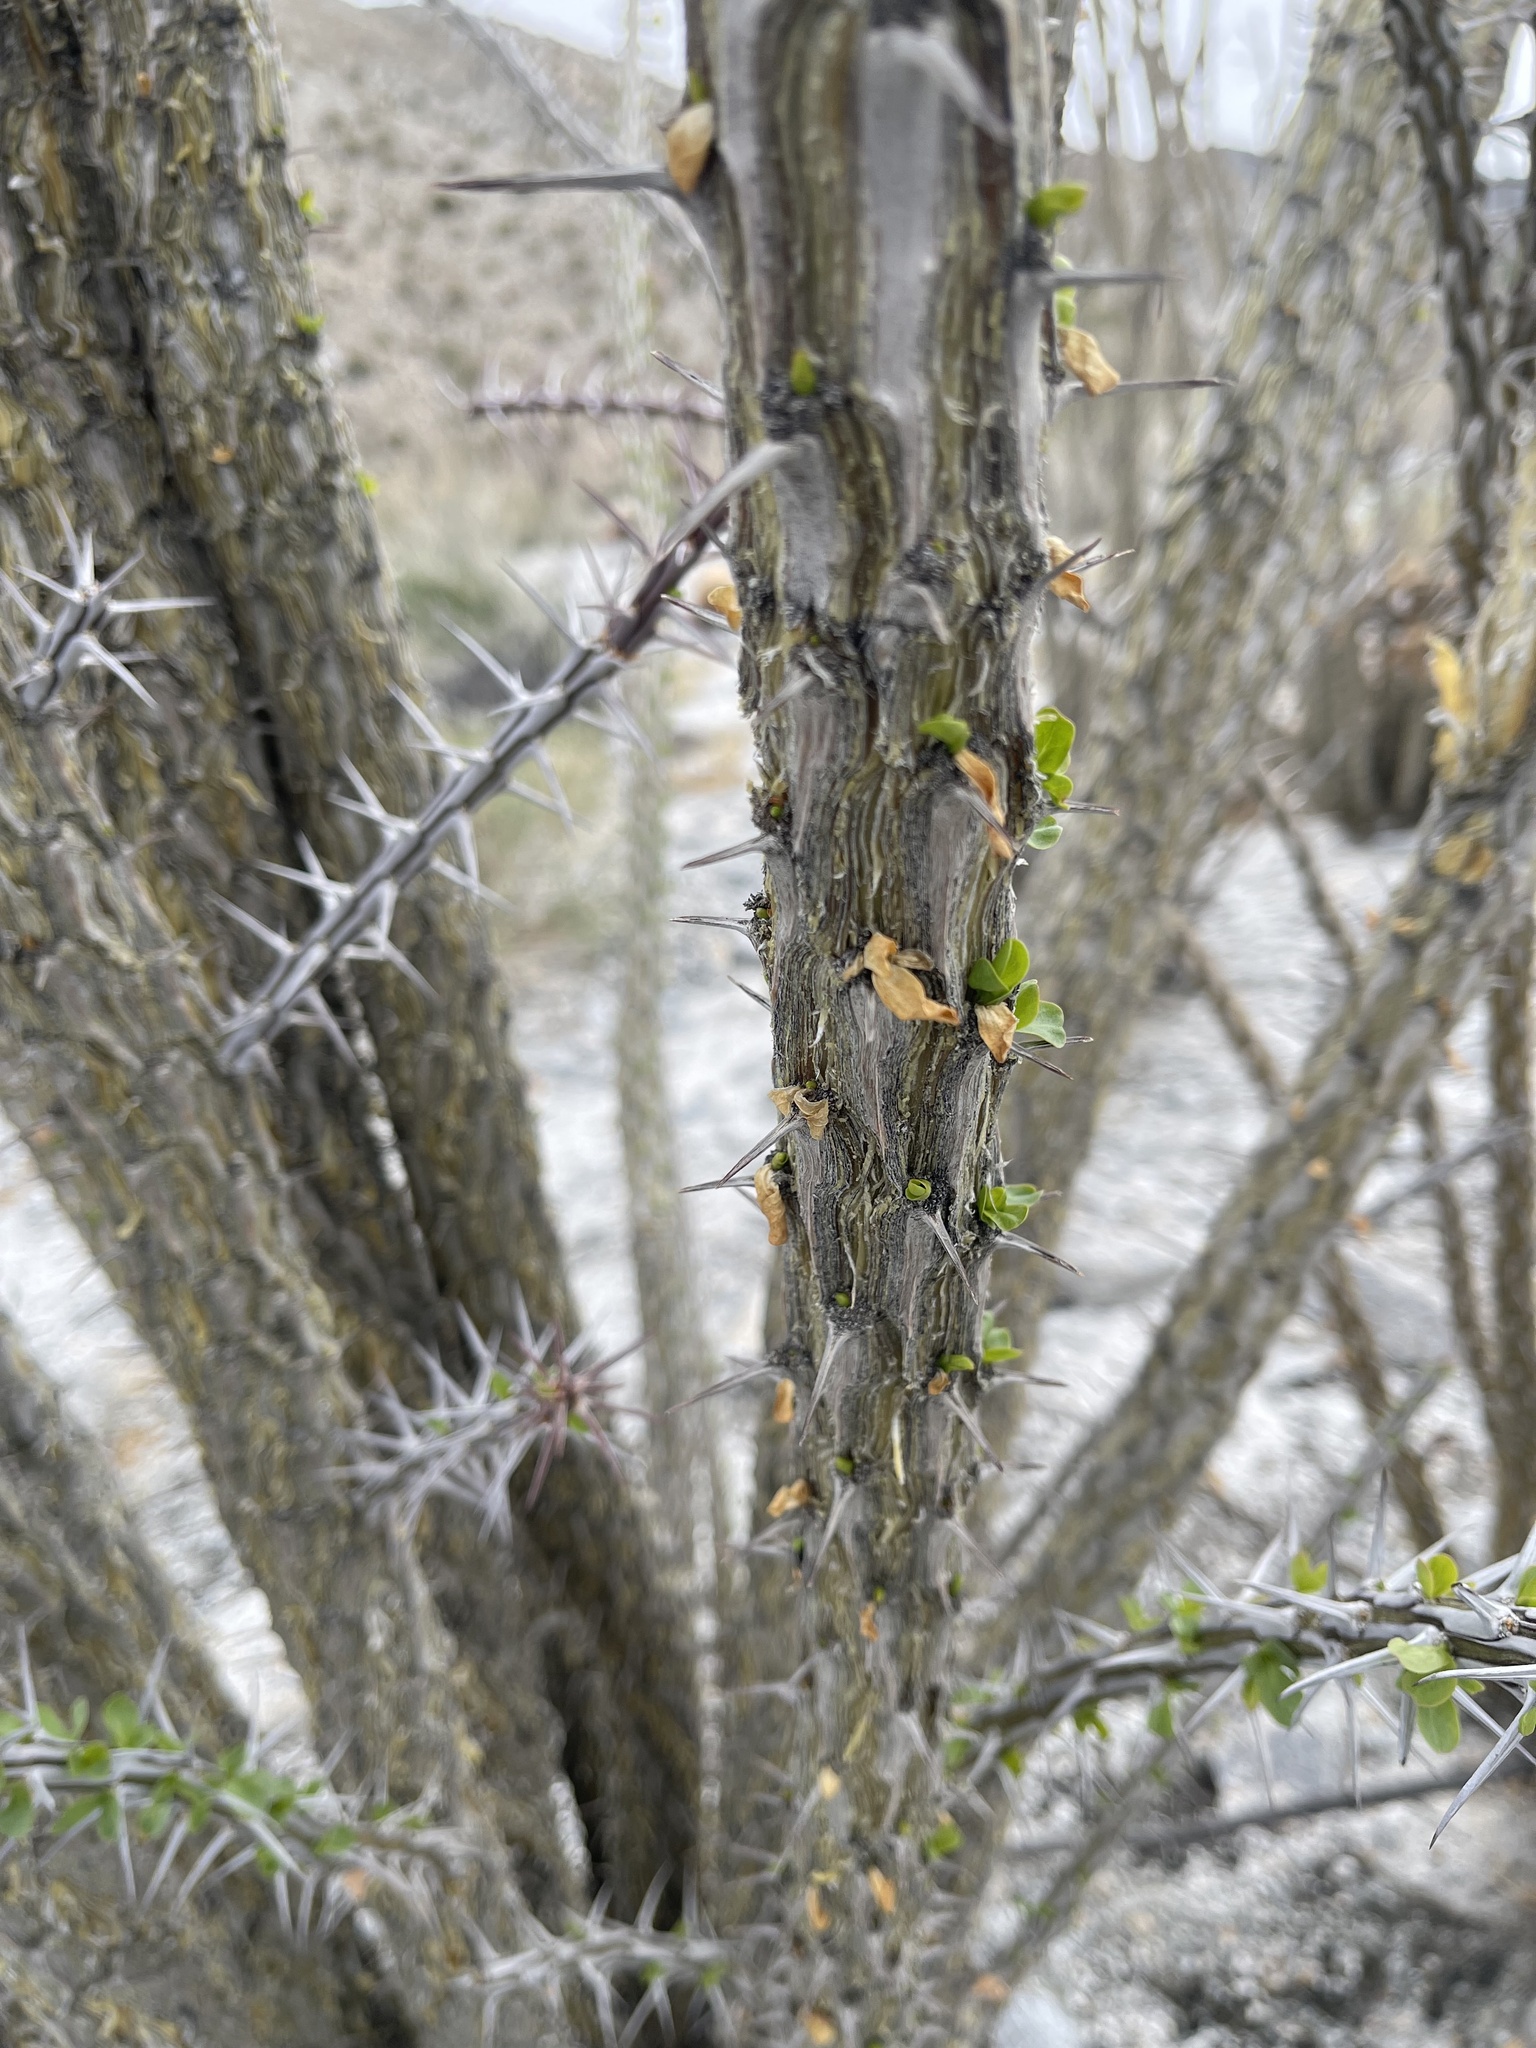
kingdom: Plantae
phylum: Tracheophyta
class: Magnoliopsida
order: Ericales
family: Fouquieriaceae
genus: Fouquieria
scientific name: Fouquieria splendens
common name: Vine-cactus
